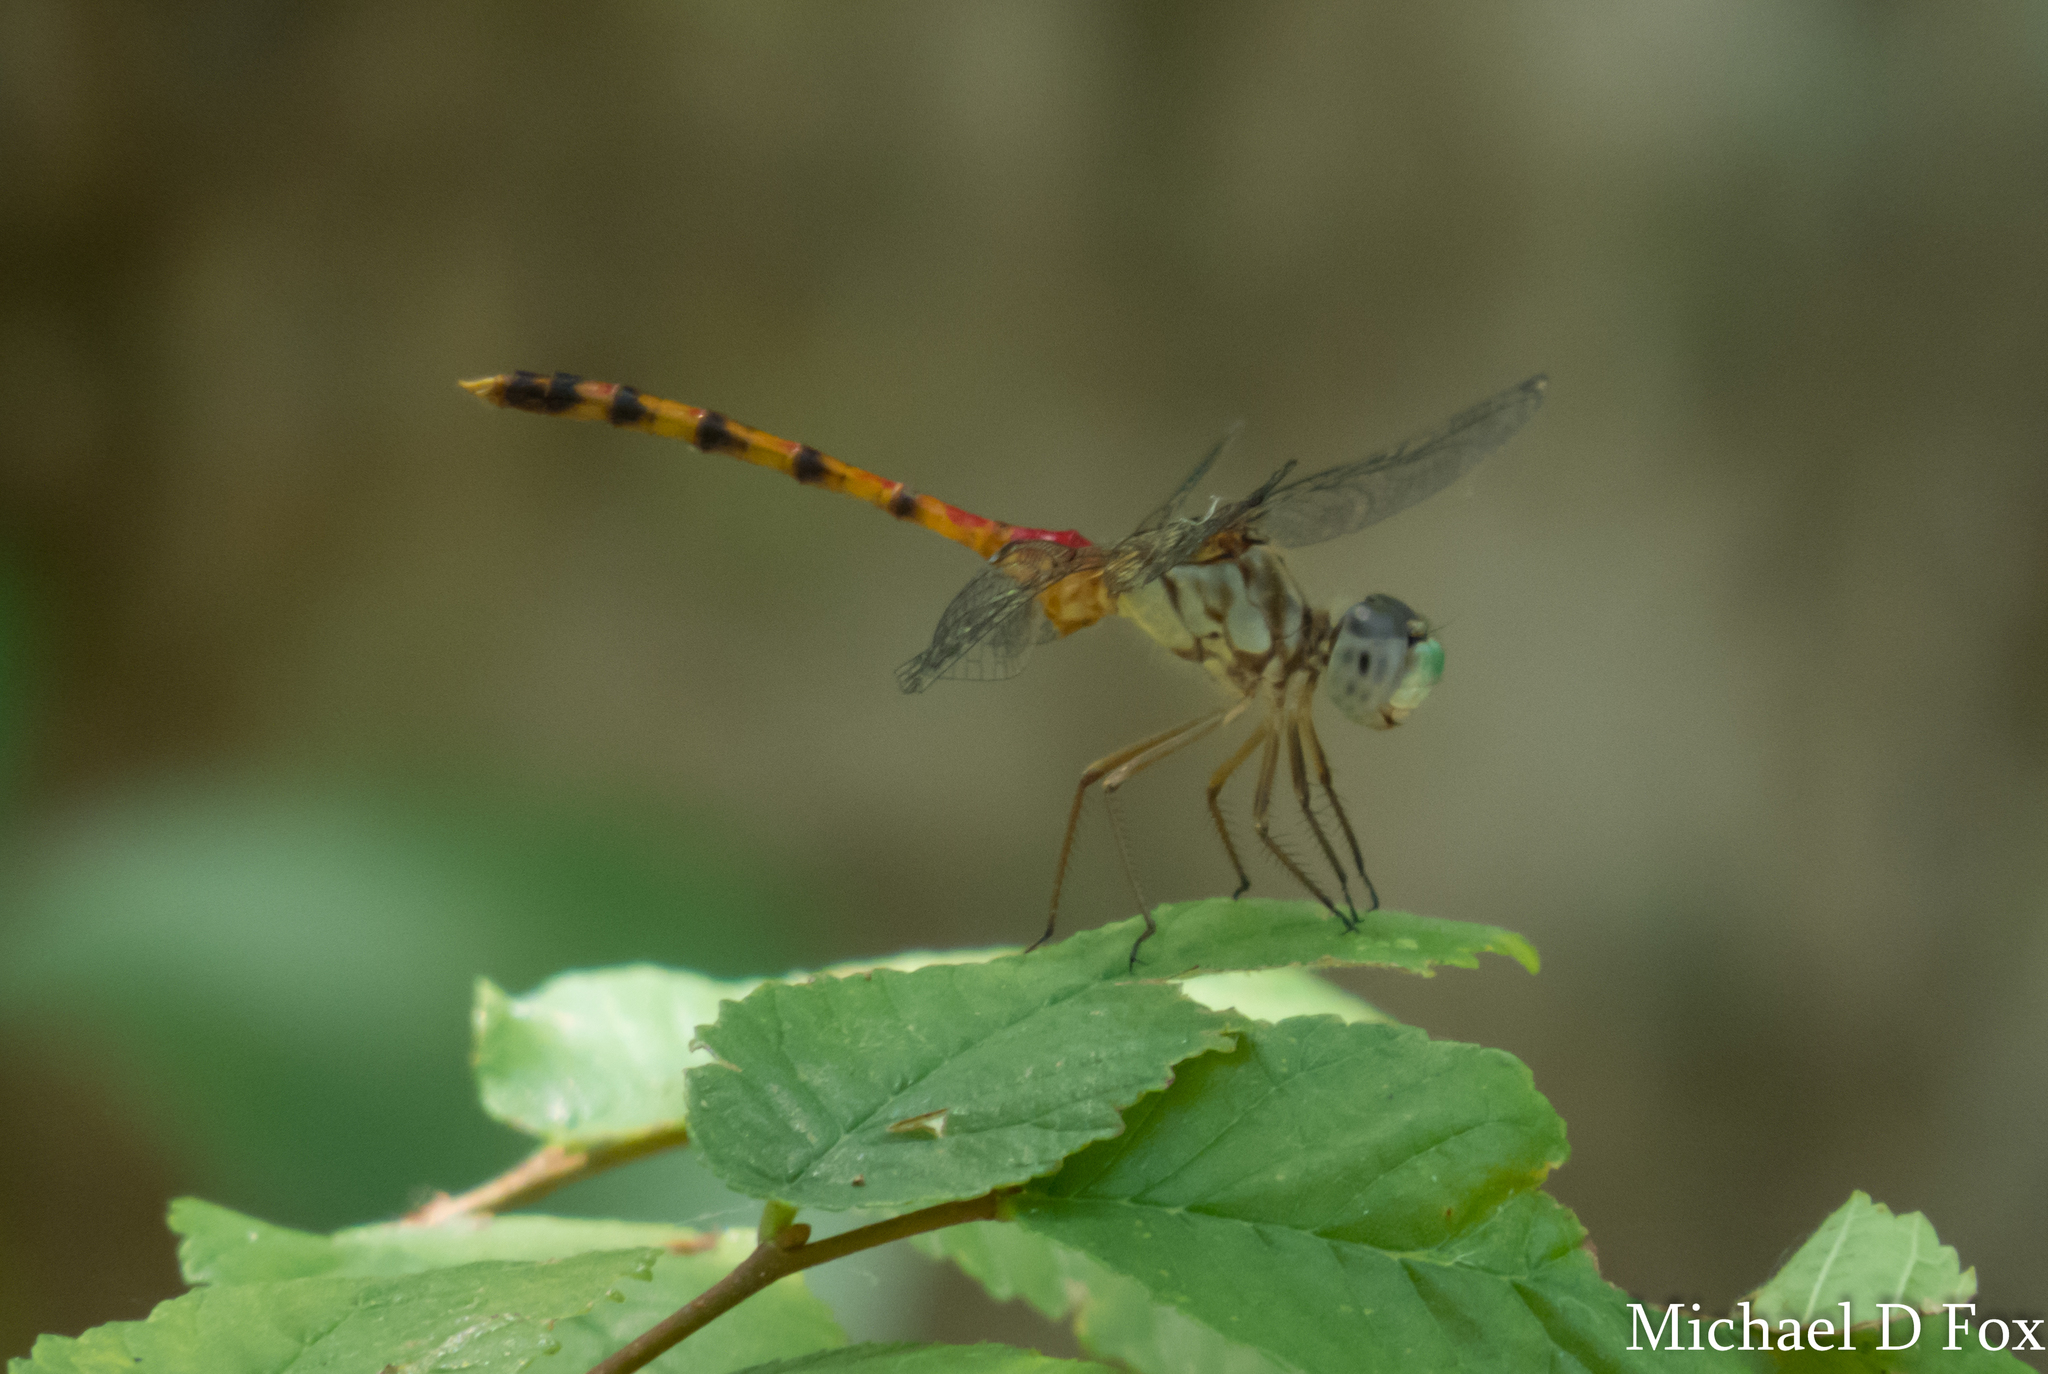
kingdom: Animalia
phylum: Arthropoda
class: Insecta
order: Odonata
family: Libellulidae
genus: Sympetrum
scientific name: Sympetrum ambiguum
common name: Blue-faced meadowhawk
